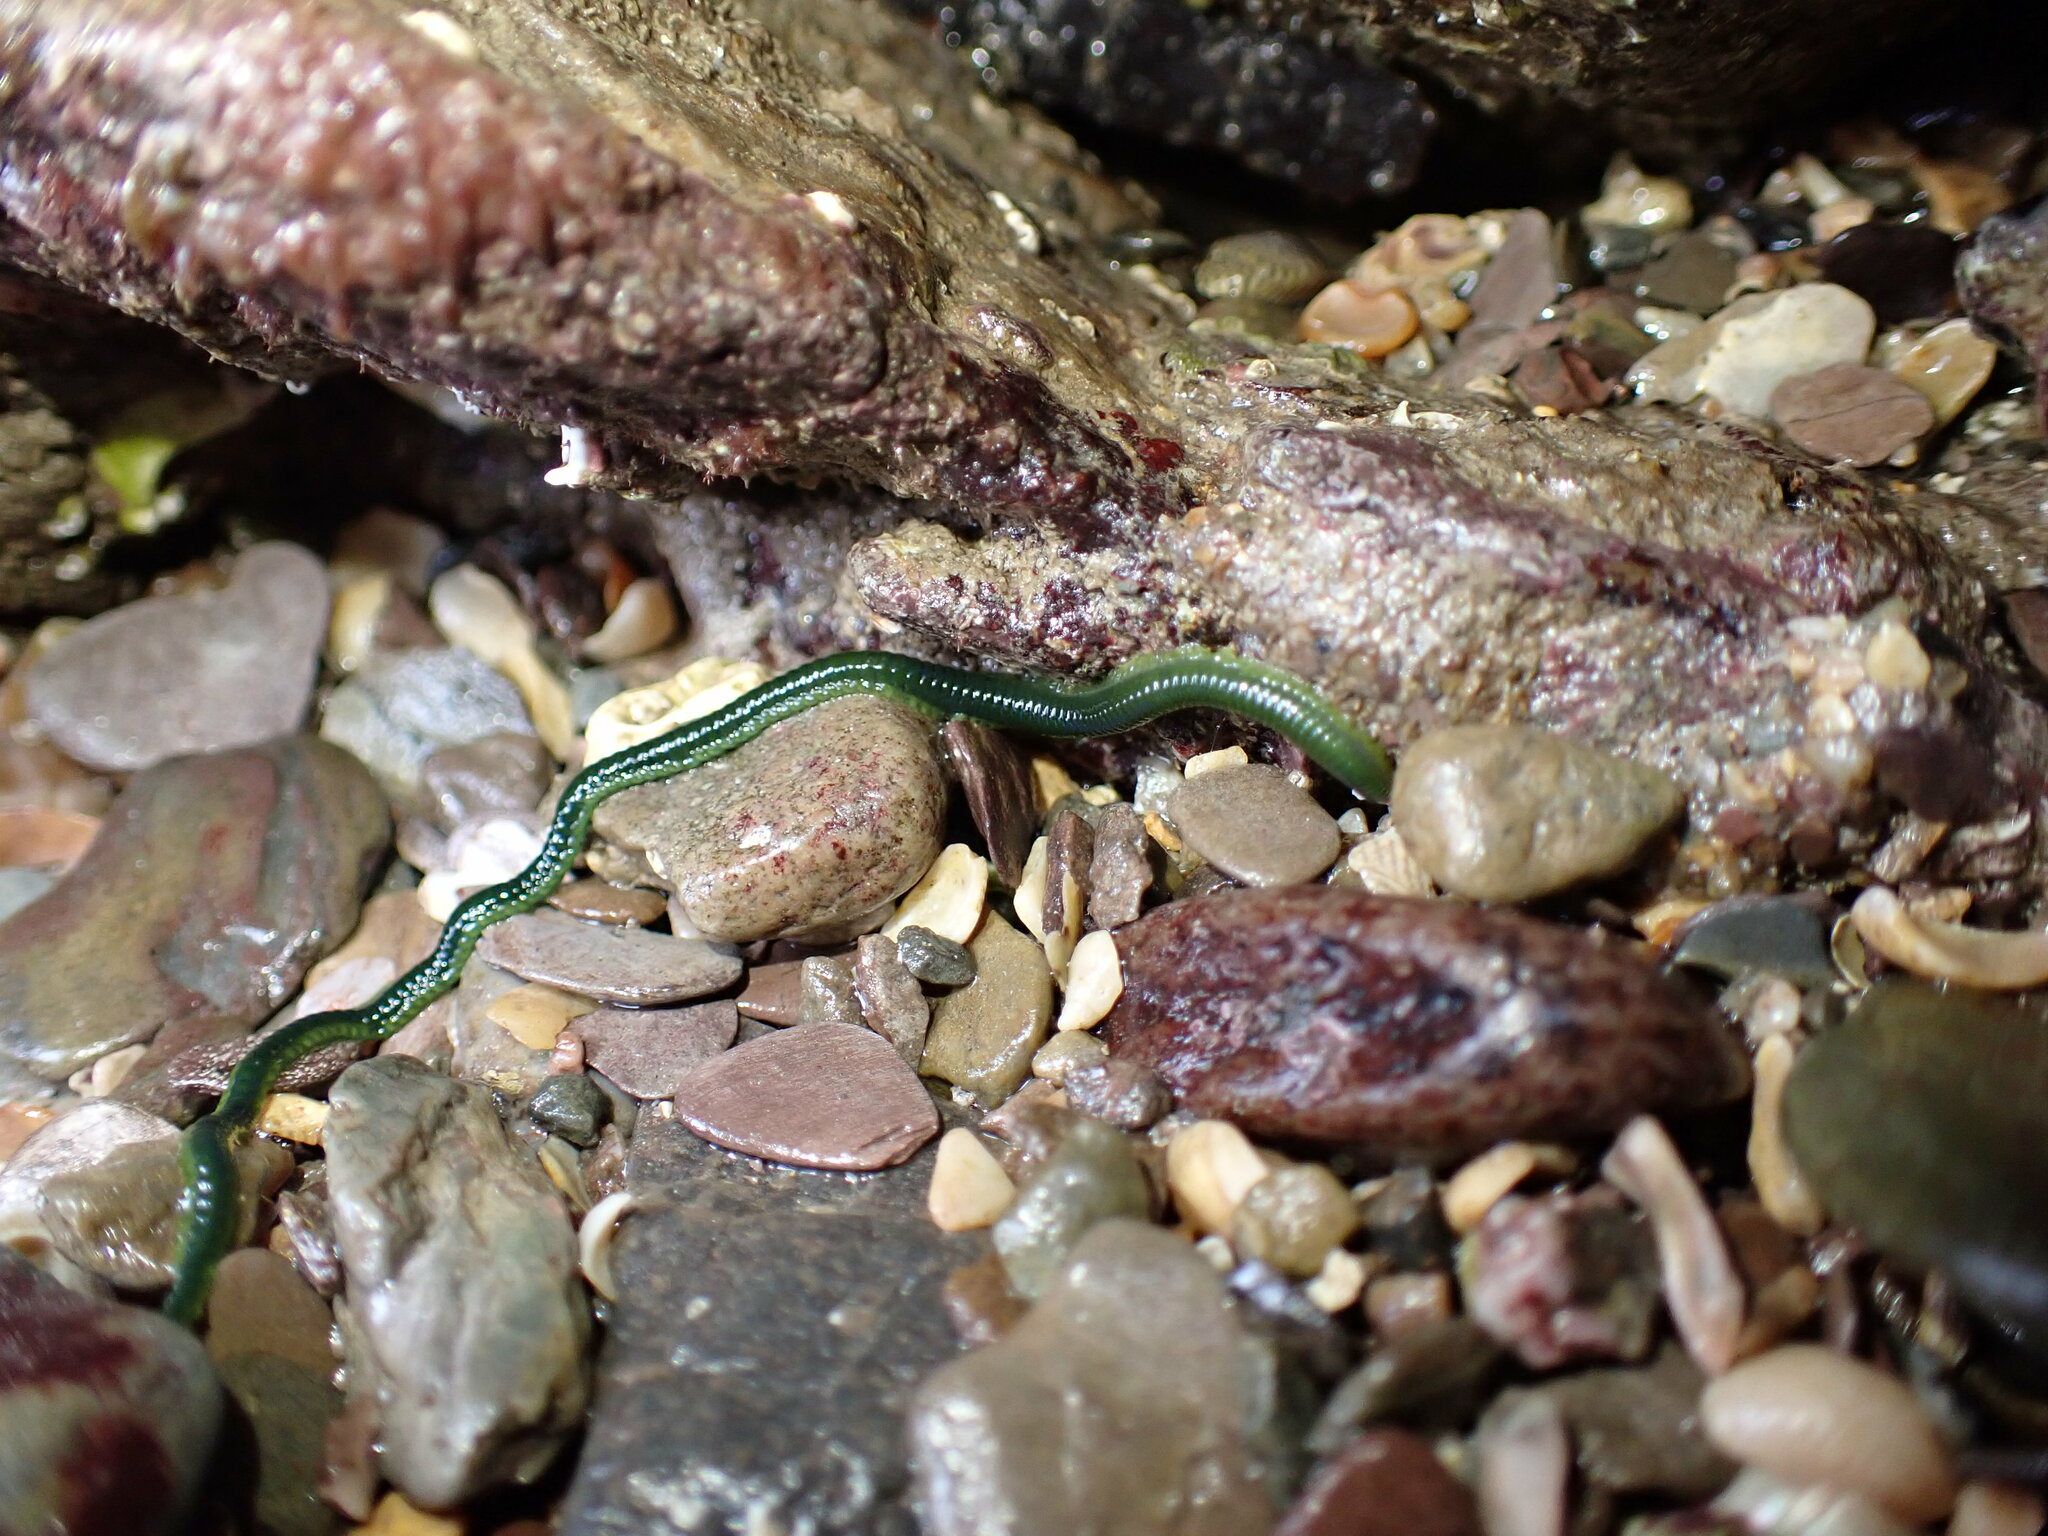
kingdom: Animalia
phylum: Annelida
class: Polychaeta
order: Phyllodocida
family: Phyllodocidae
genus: Eulalia
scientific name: Eulalia clavigera
